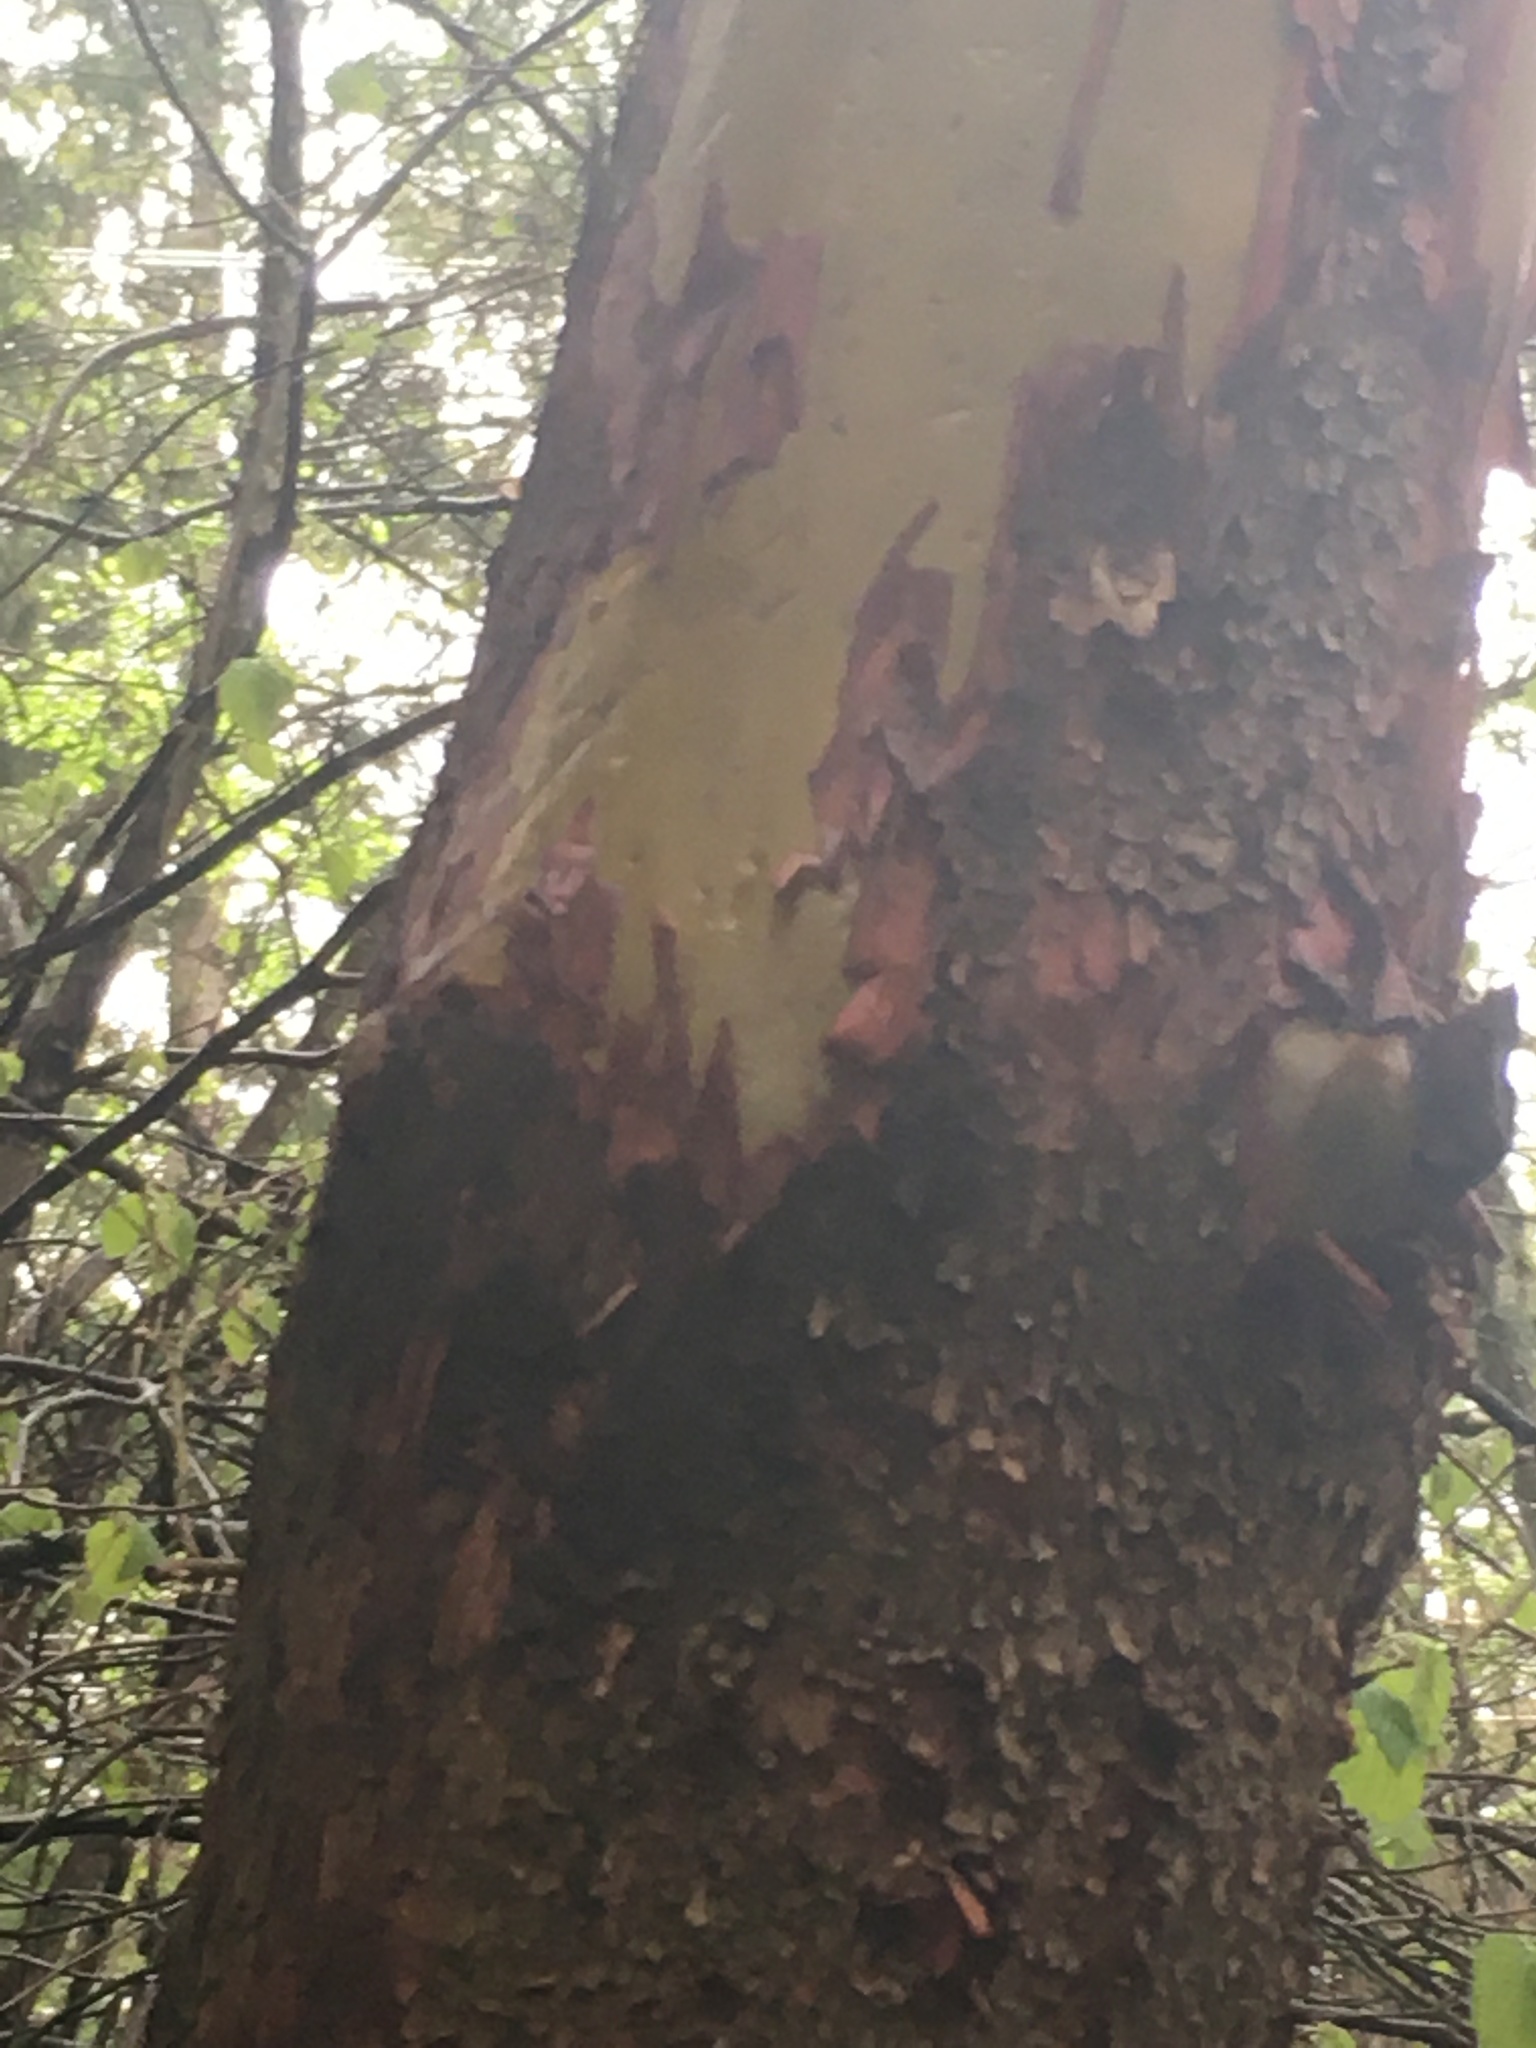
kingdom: Plantae
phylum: Tracheophyta
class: Magnoliopsida
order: Ericales
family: Ericaceae
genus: Arbutus
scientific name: Arbutus menziesii
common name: Pacific madrone
